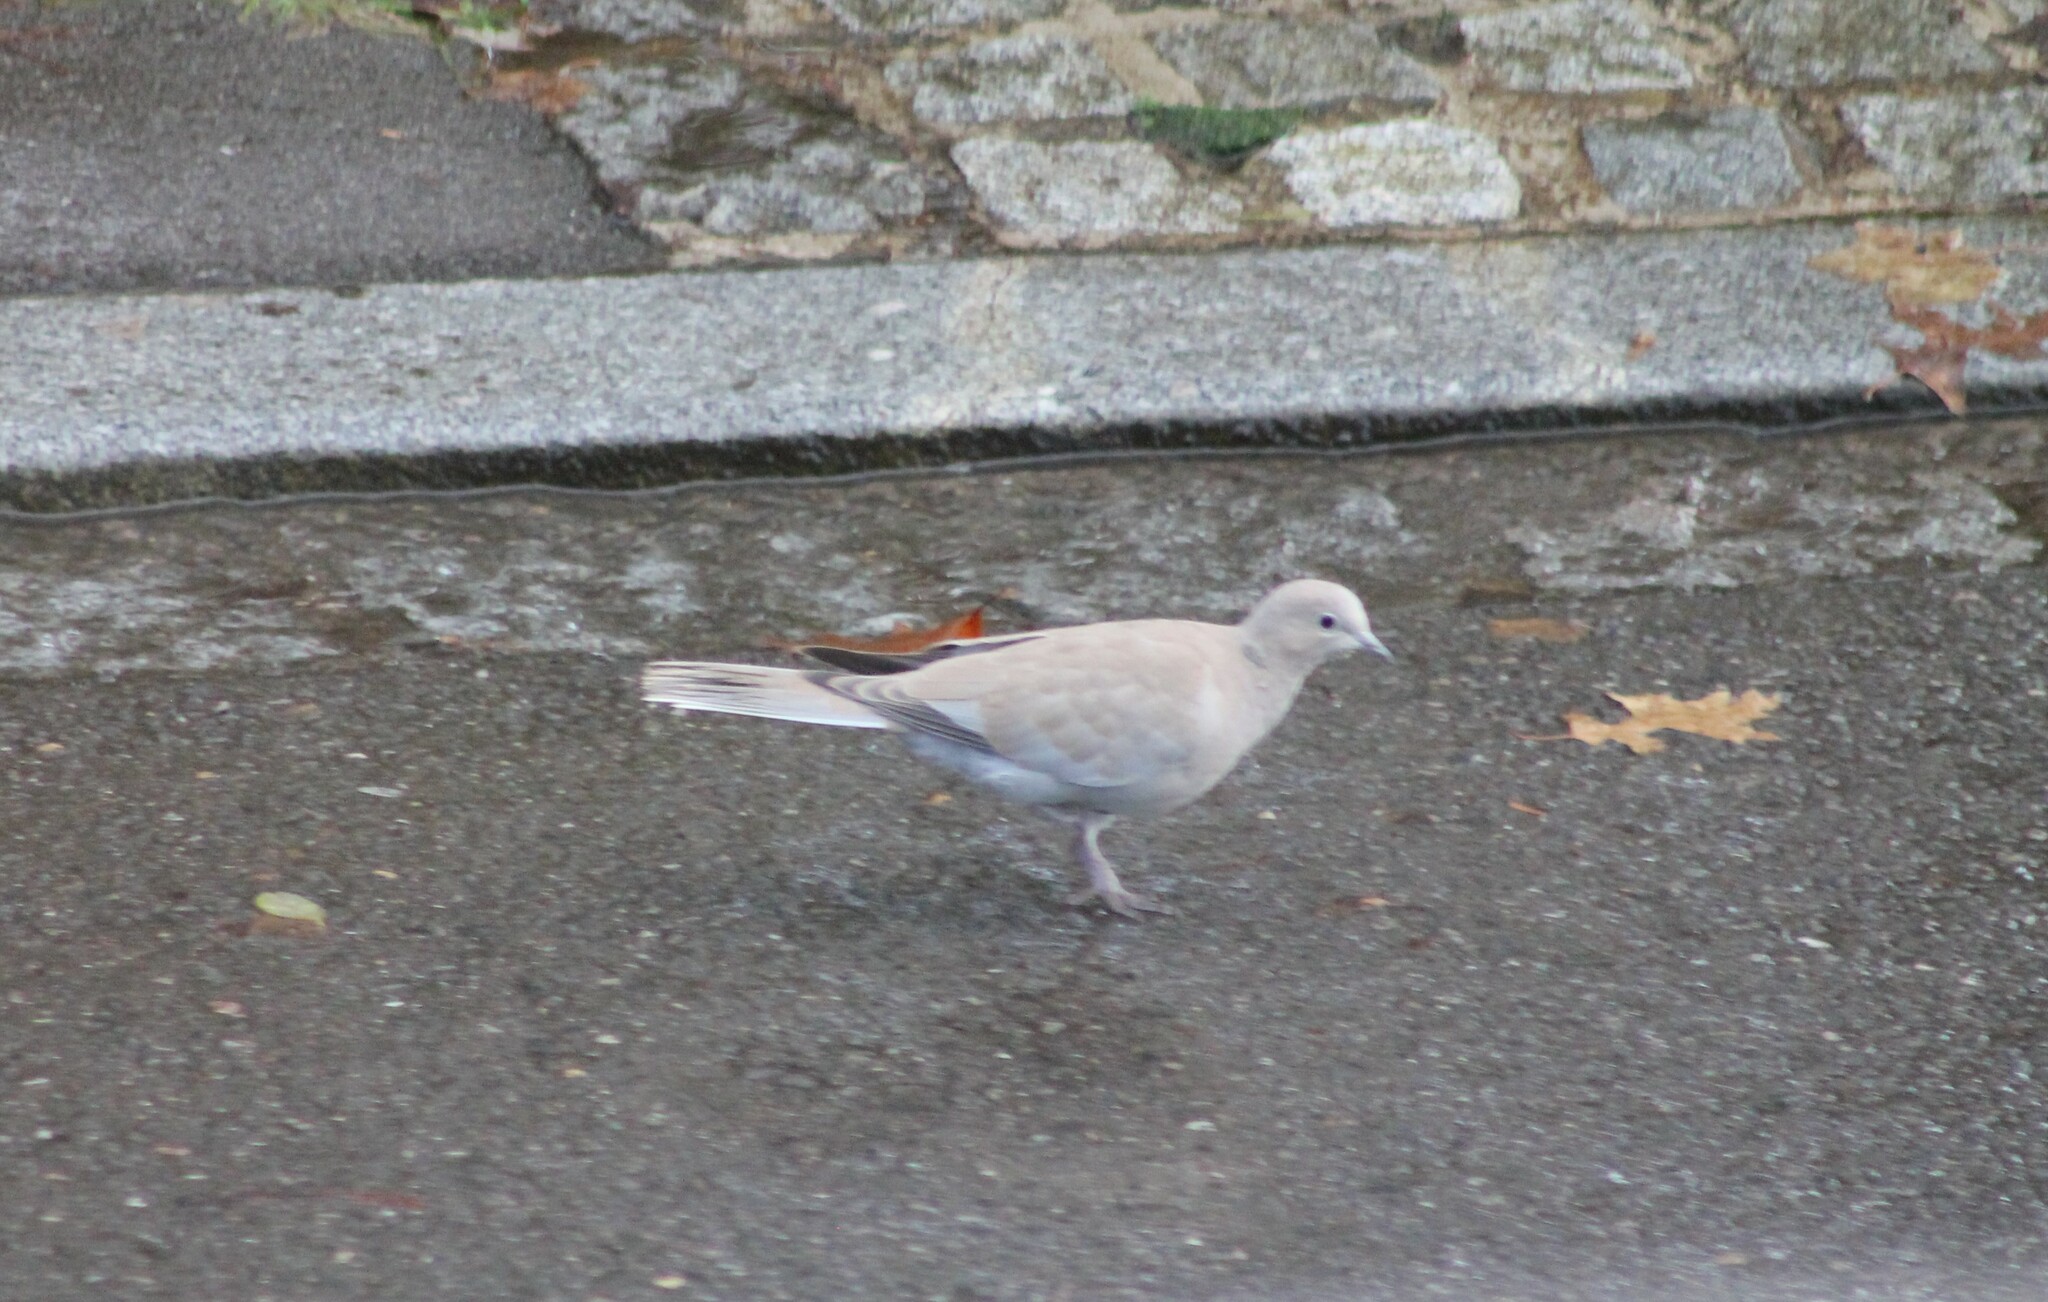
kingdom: Animalia
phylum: Chordata
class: Aves
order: Columbiformes
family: Columbidae
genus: Streptopelia
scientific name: Streptopelia decaocto
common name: Eurasian collared dove
